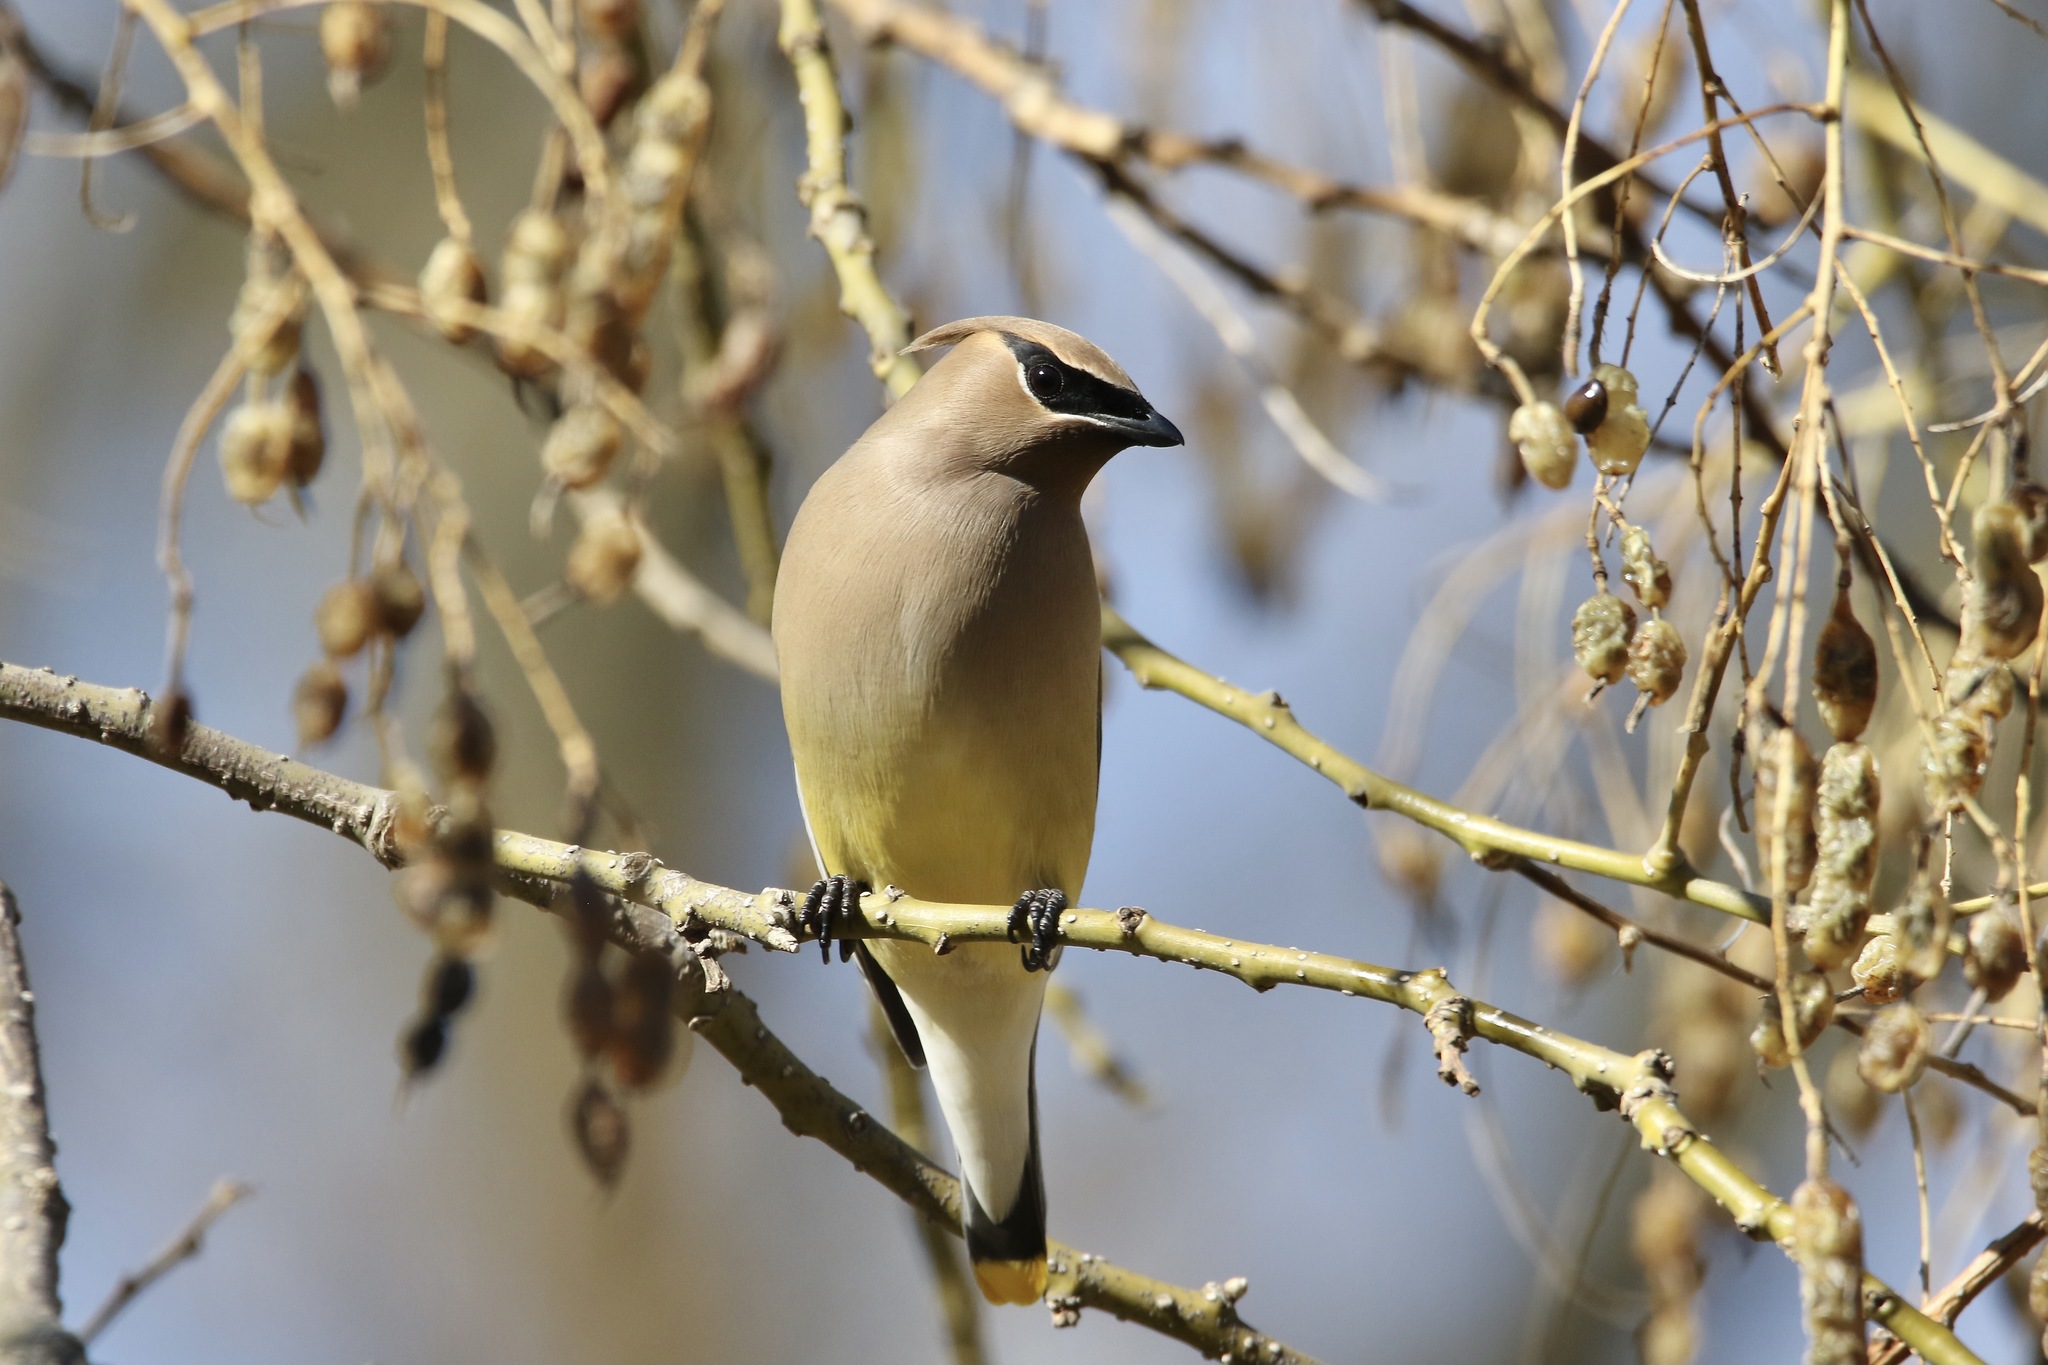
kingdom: Animalia
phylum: Chordata
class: Aves
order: Passeriformes
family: Bombycillidae
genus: Bombycilla
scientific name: Bombycilla cedrorum
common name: Cedar waxwing
